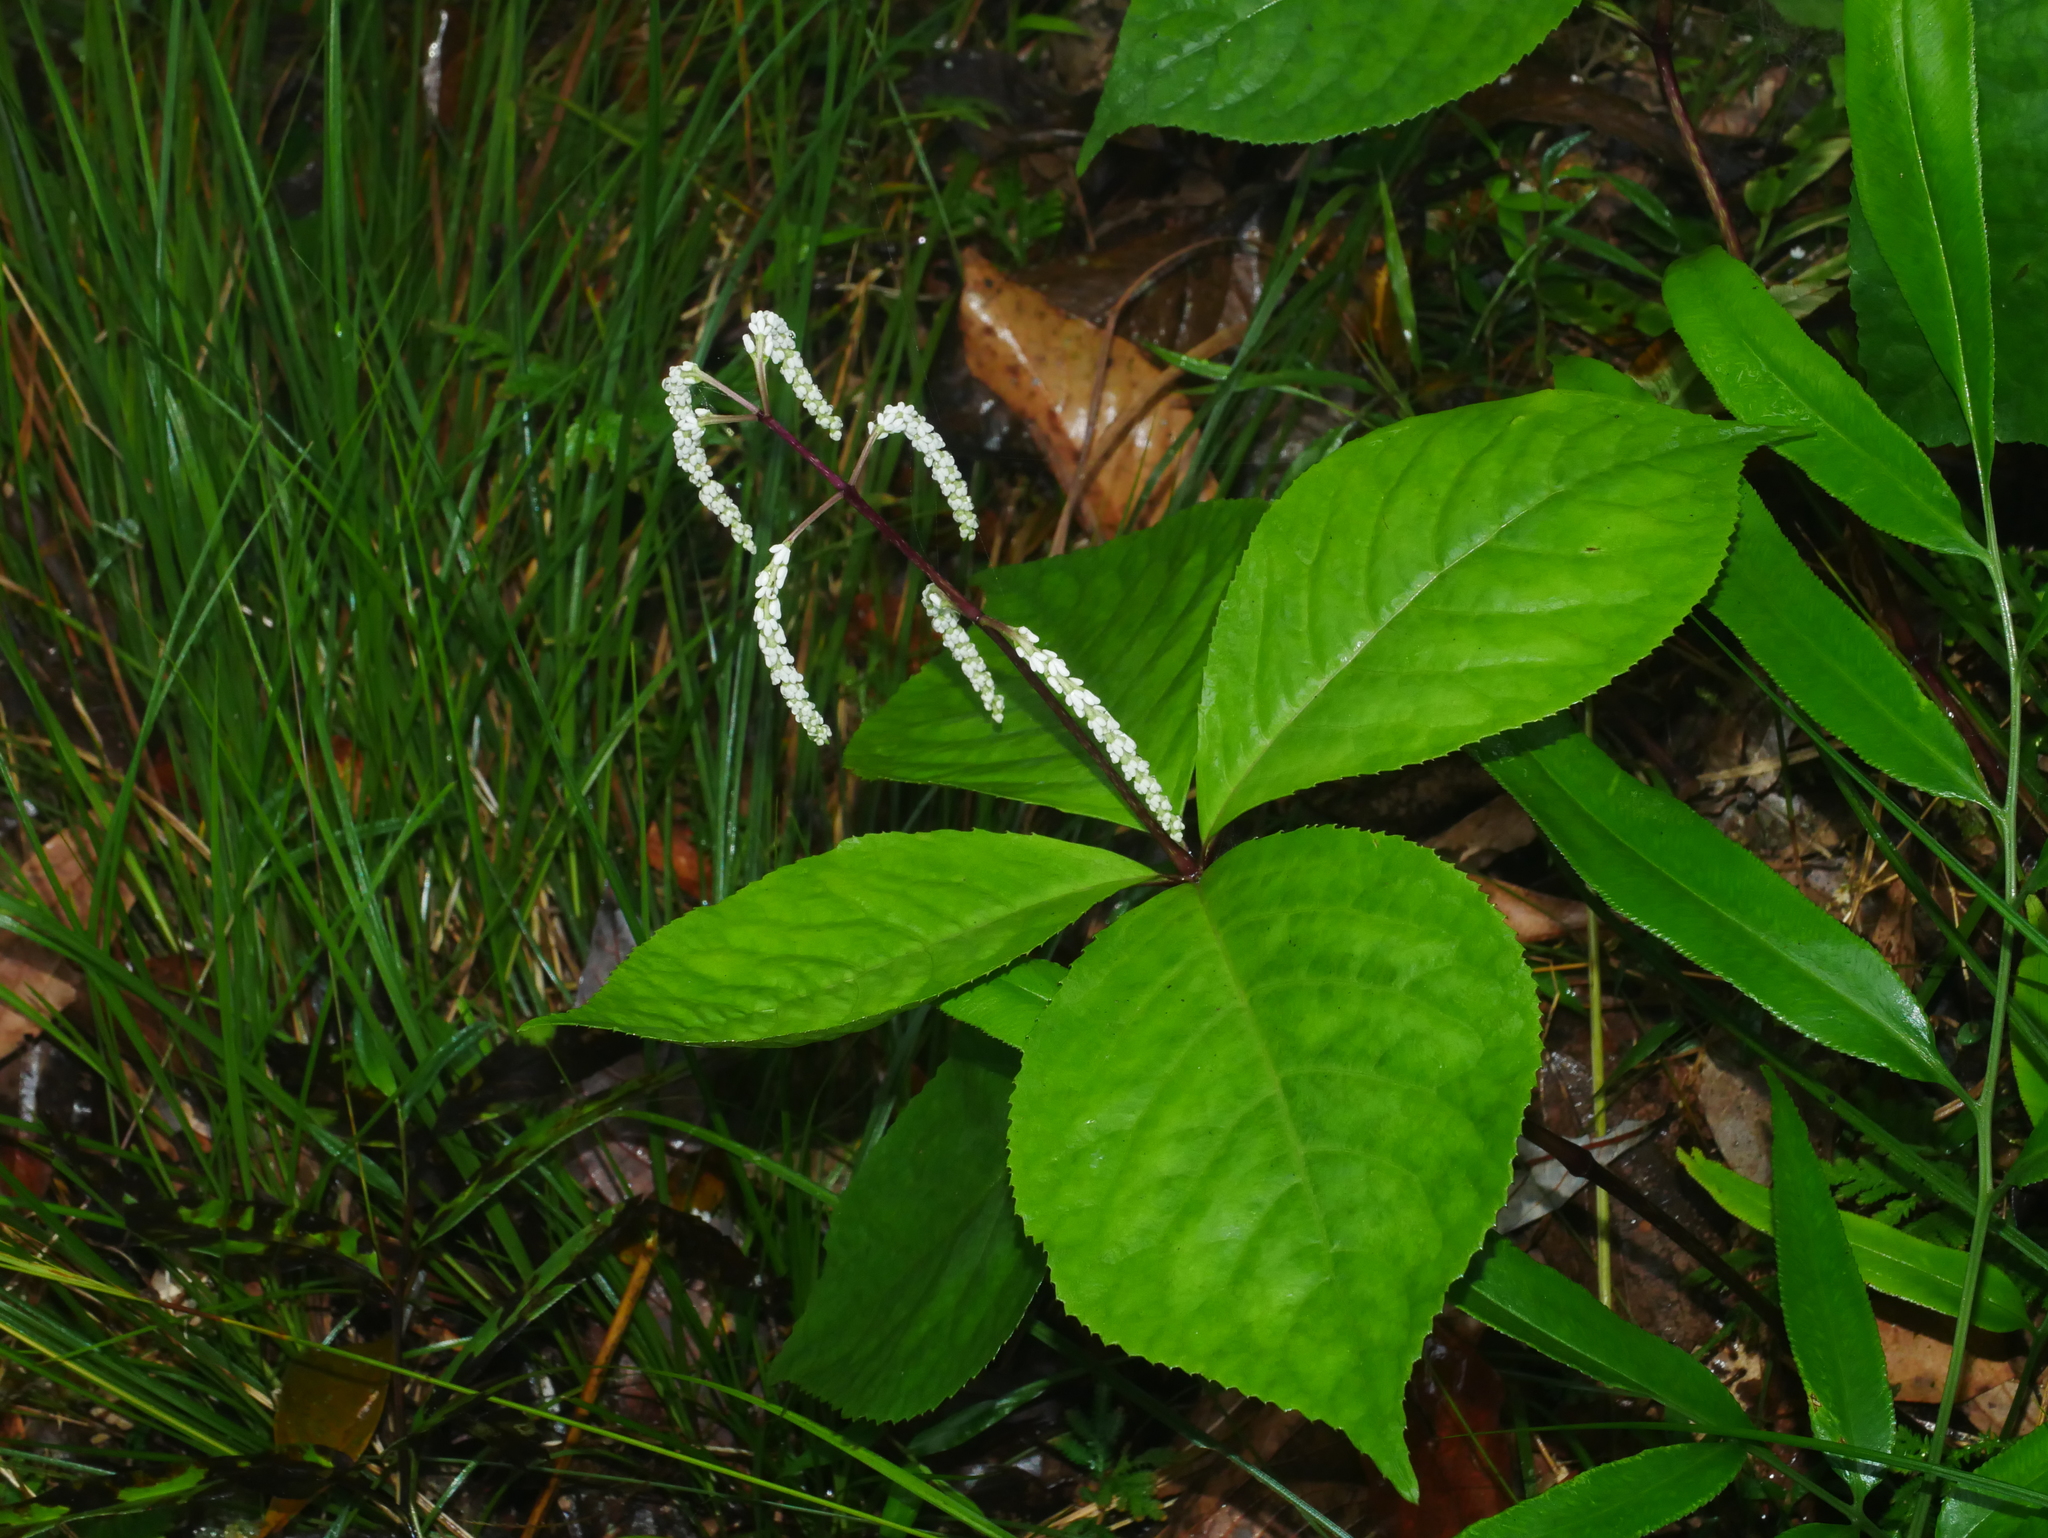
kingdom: Plantae
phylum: Tracheophyta
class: Magnoliopsida
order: Chloranthales
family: Chloranthaceae
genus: Chloranthus
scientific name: Chloranthus oldhamii
